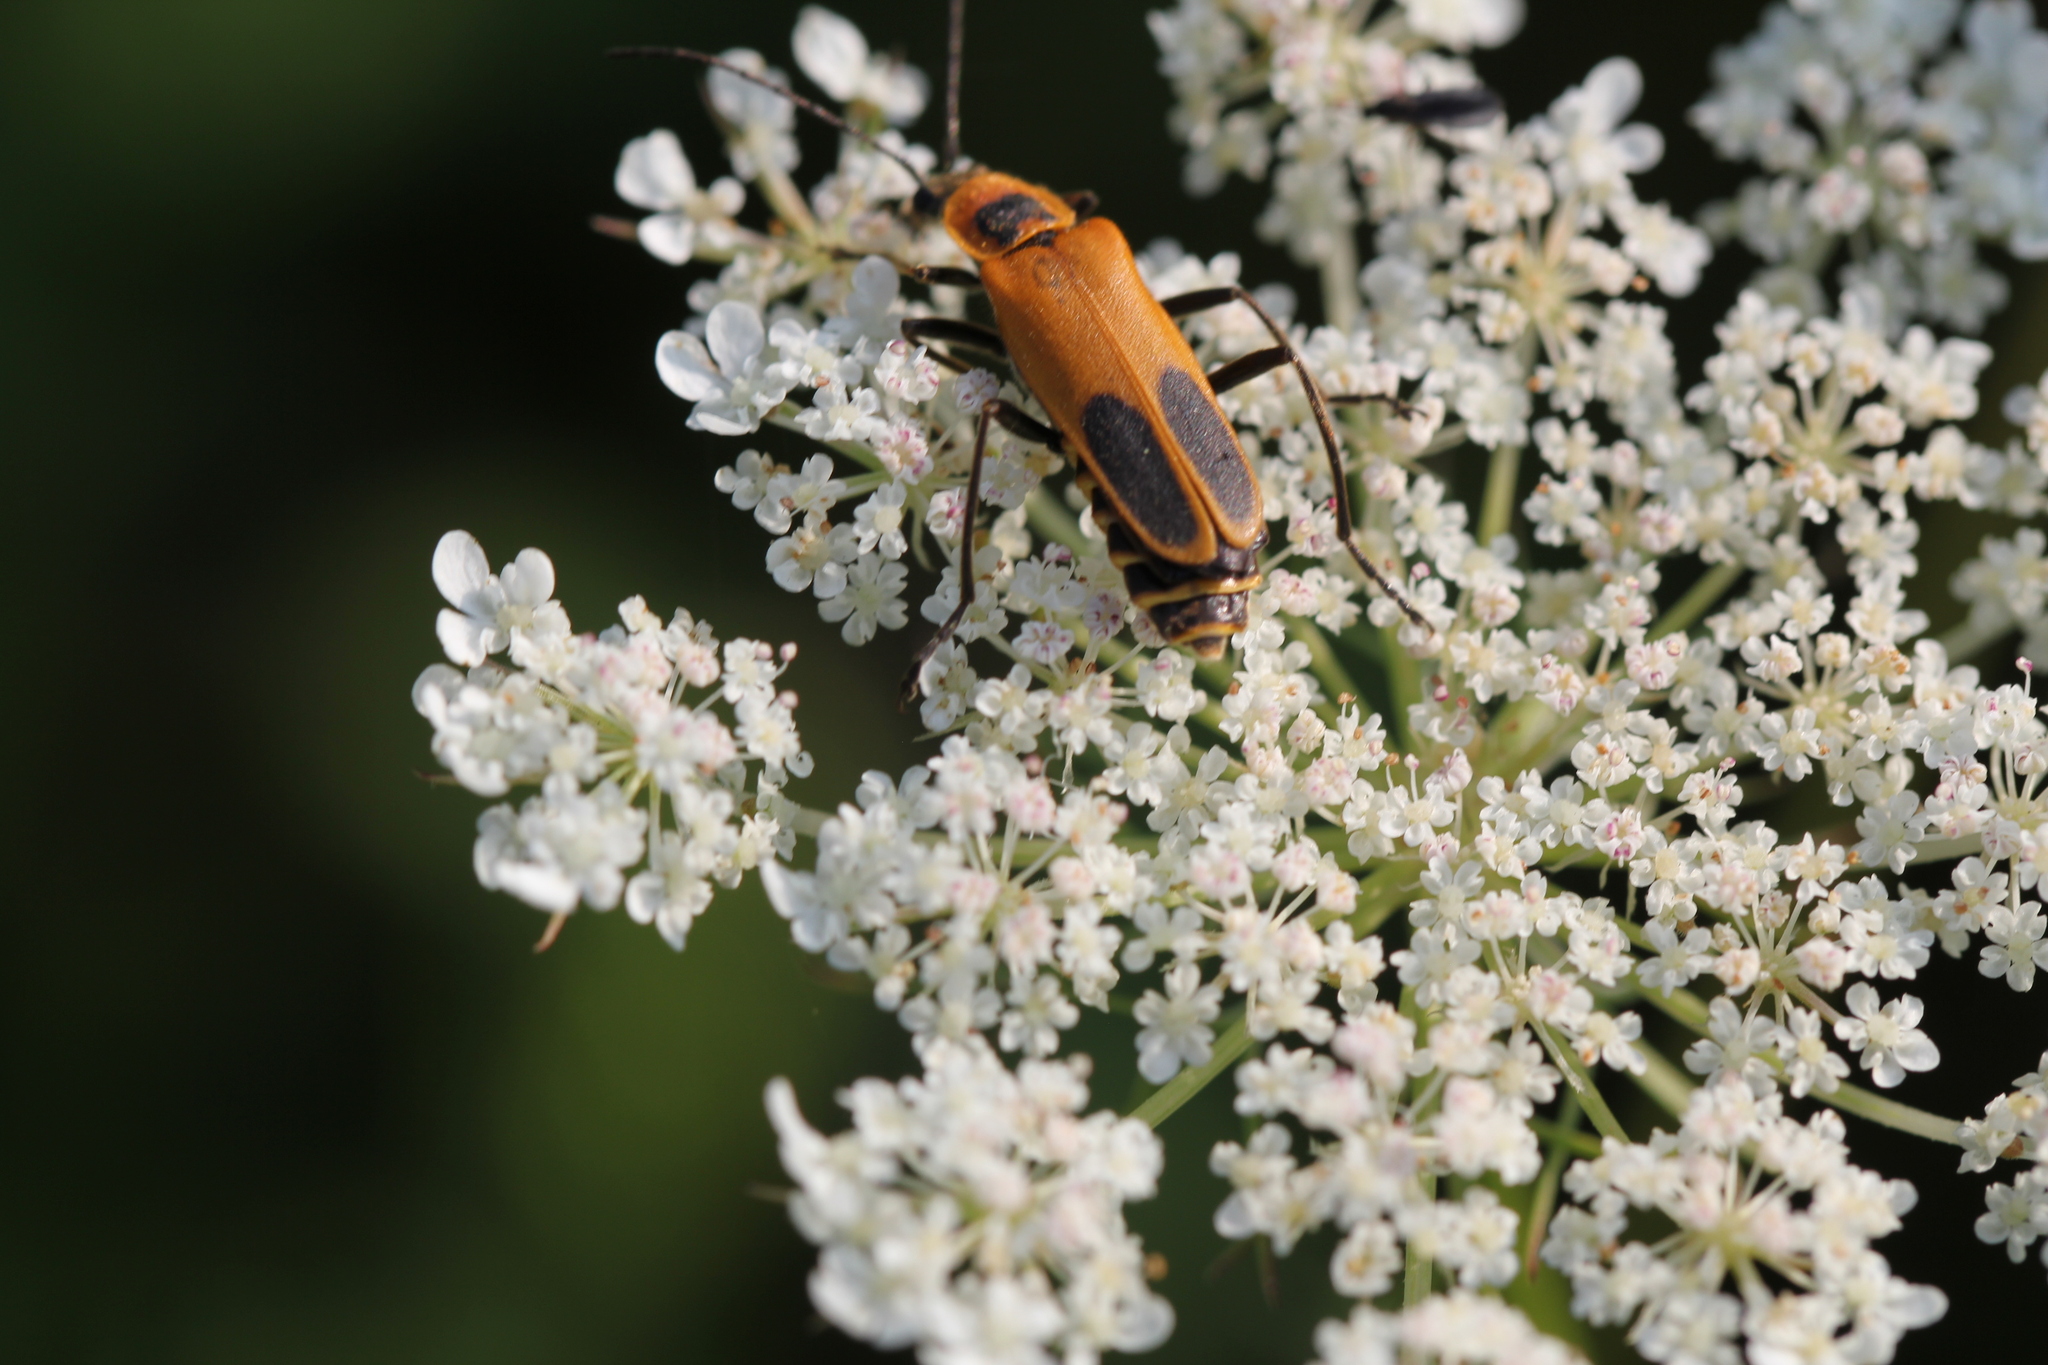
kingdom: Animalia
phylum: Arthropoda
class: Insecta
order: Coleoptera
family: Cantharidae
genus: Chauliognathus
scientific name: Chauliognathus pensylvanicus
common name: Goldenrod soldier beetle
